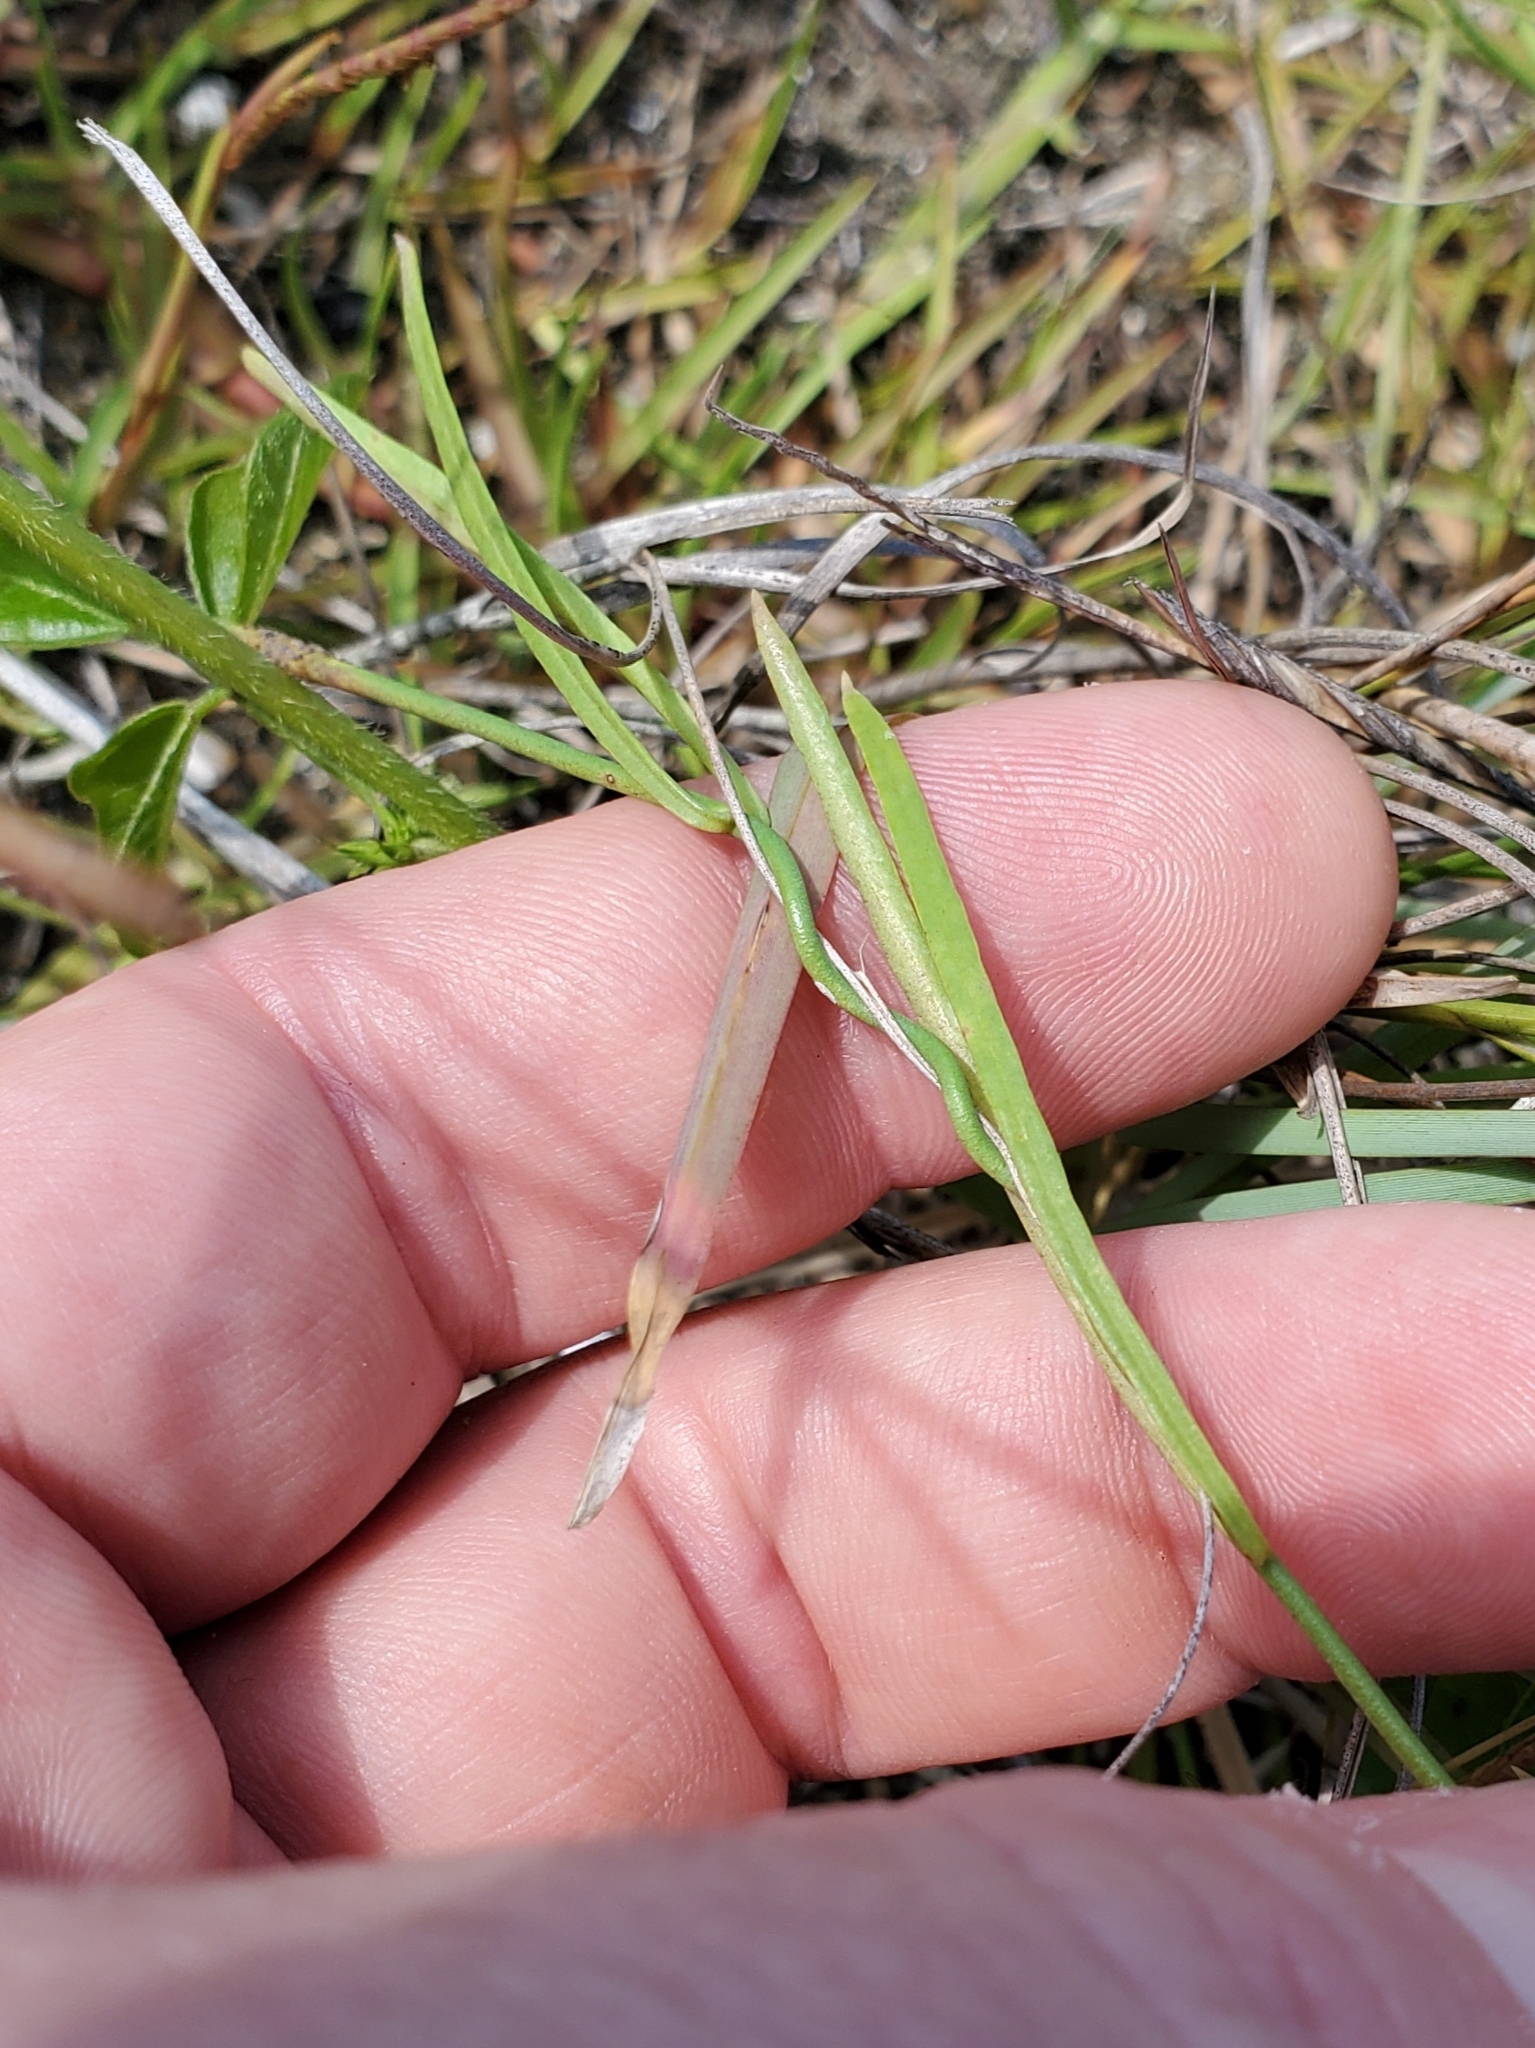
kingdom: Plantae
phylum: Tracheophyta
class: Magnoliopsida
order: Gentianales
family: Apocynaceae
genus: Pattalias
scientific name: Pattalias
